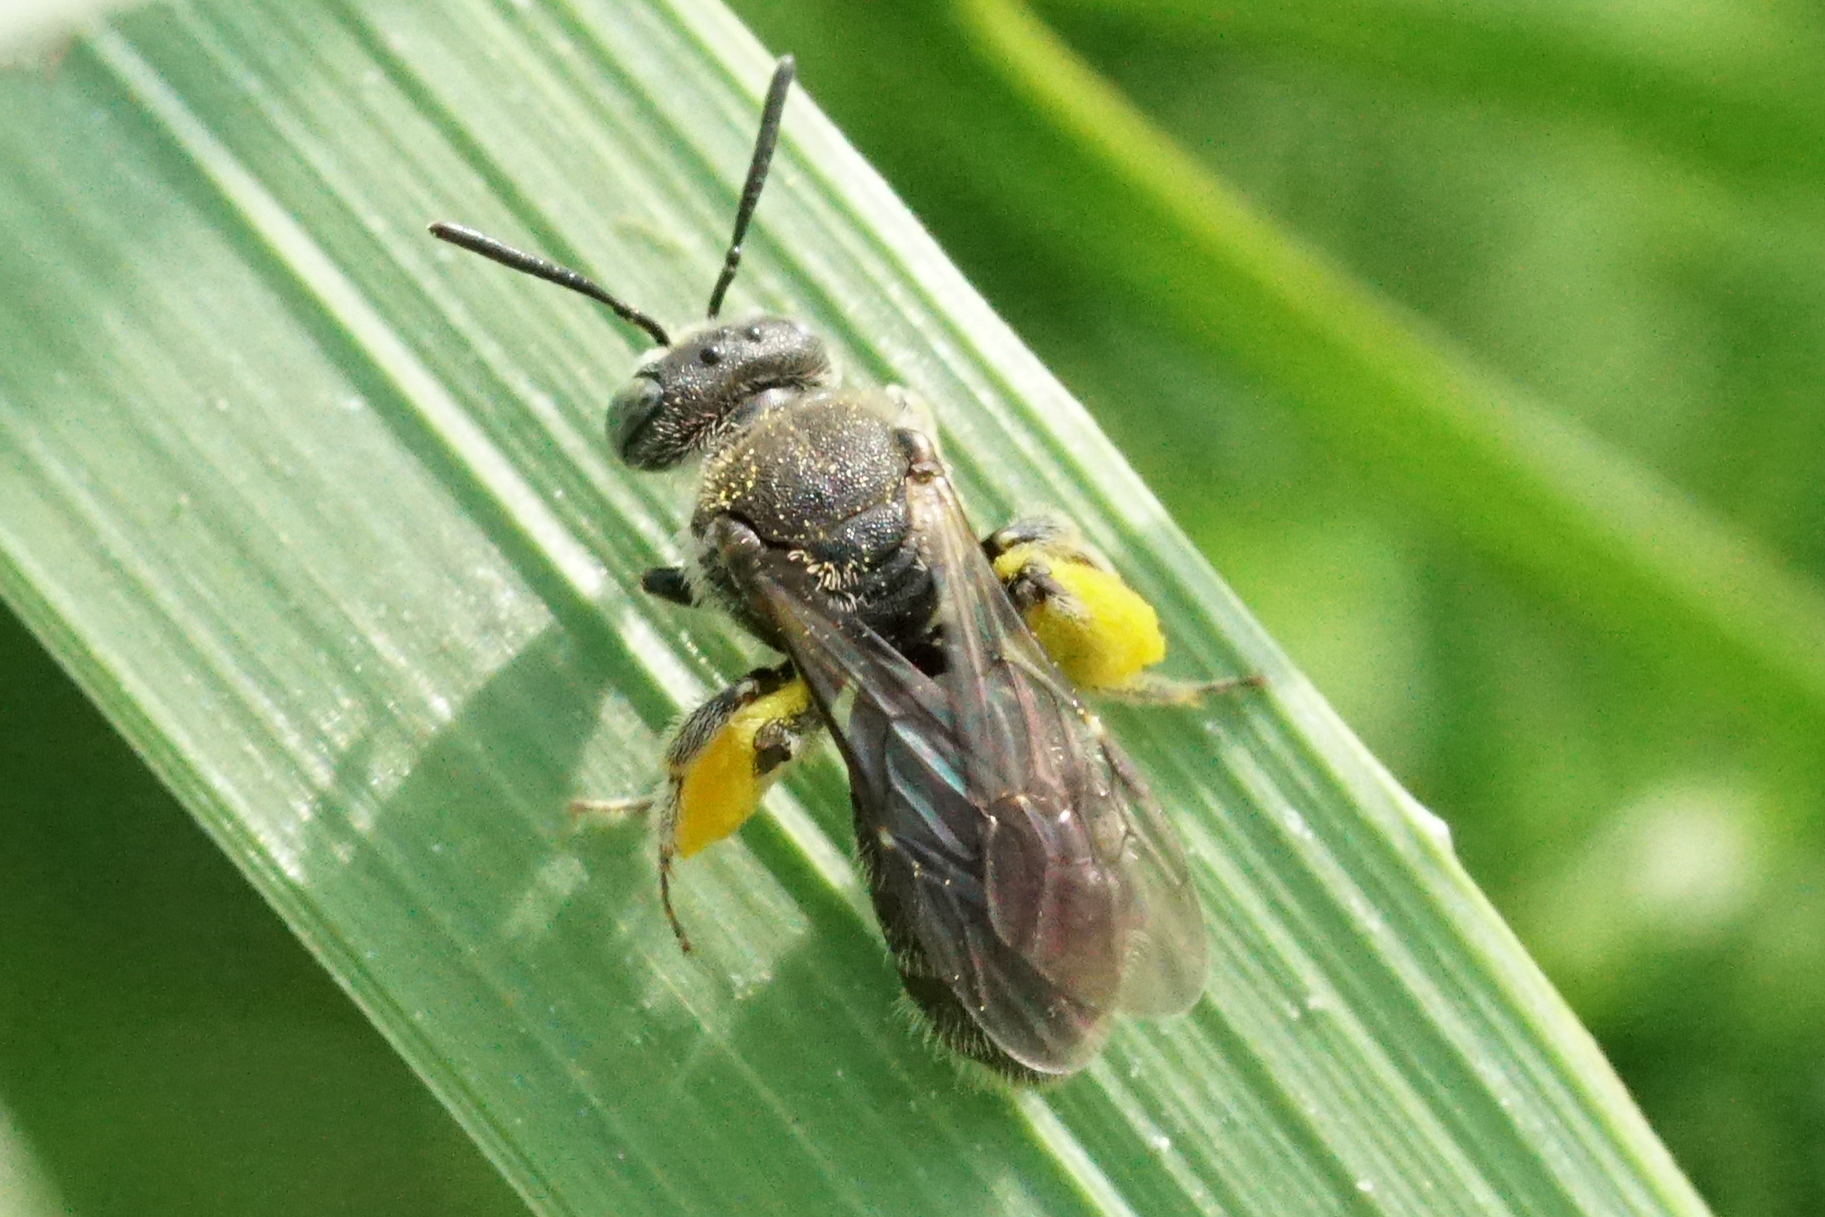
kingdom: Animalia
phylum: Arthropoda
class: Insecta
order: Hymenoptera
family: Andrenidae
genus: Pseudopanurgus
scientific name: Pseudopanurgus compositarum
